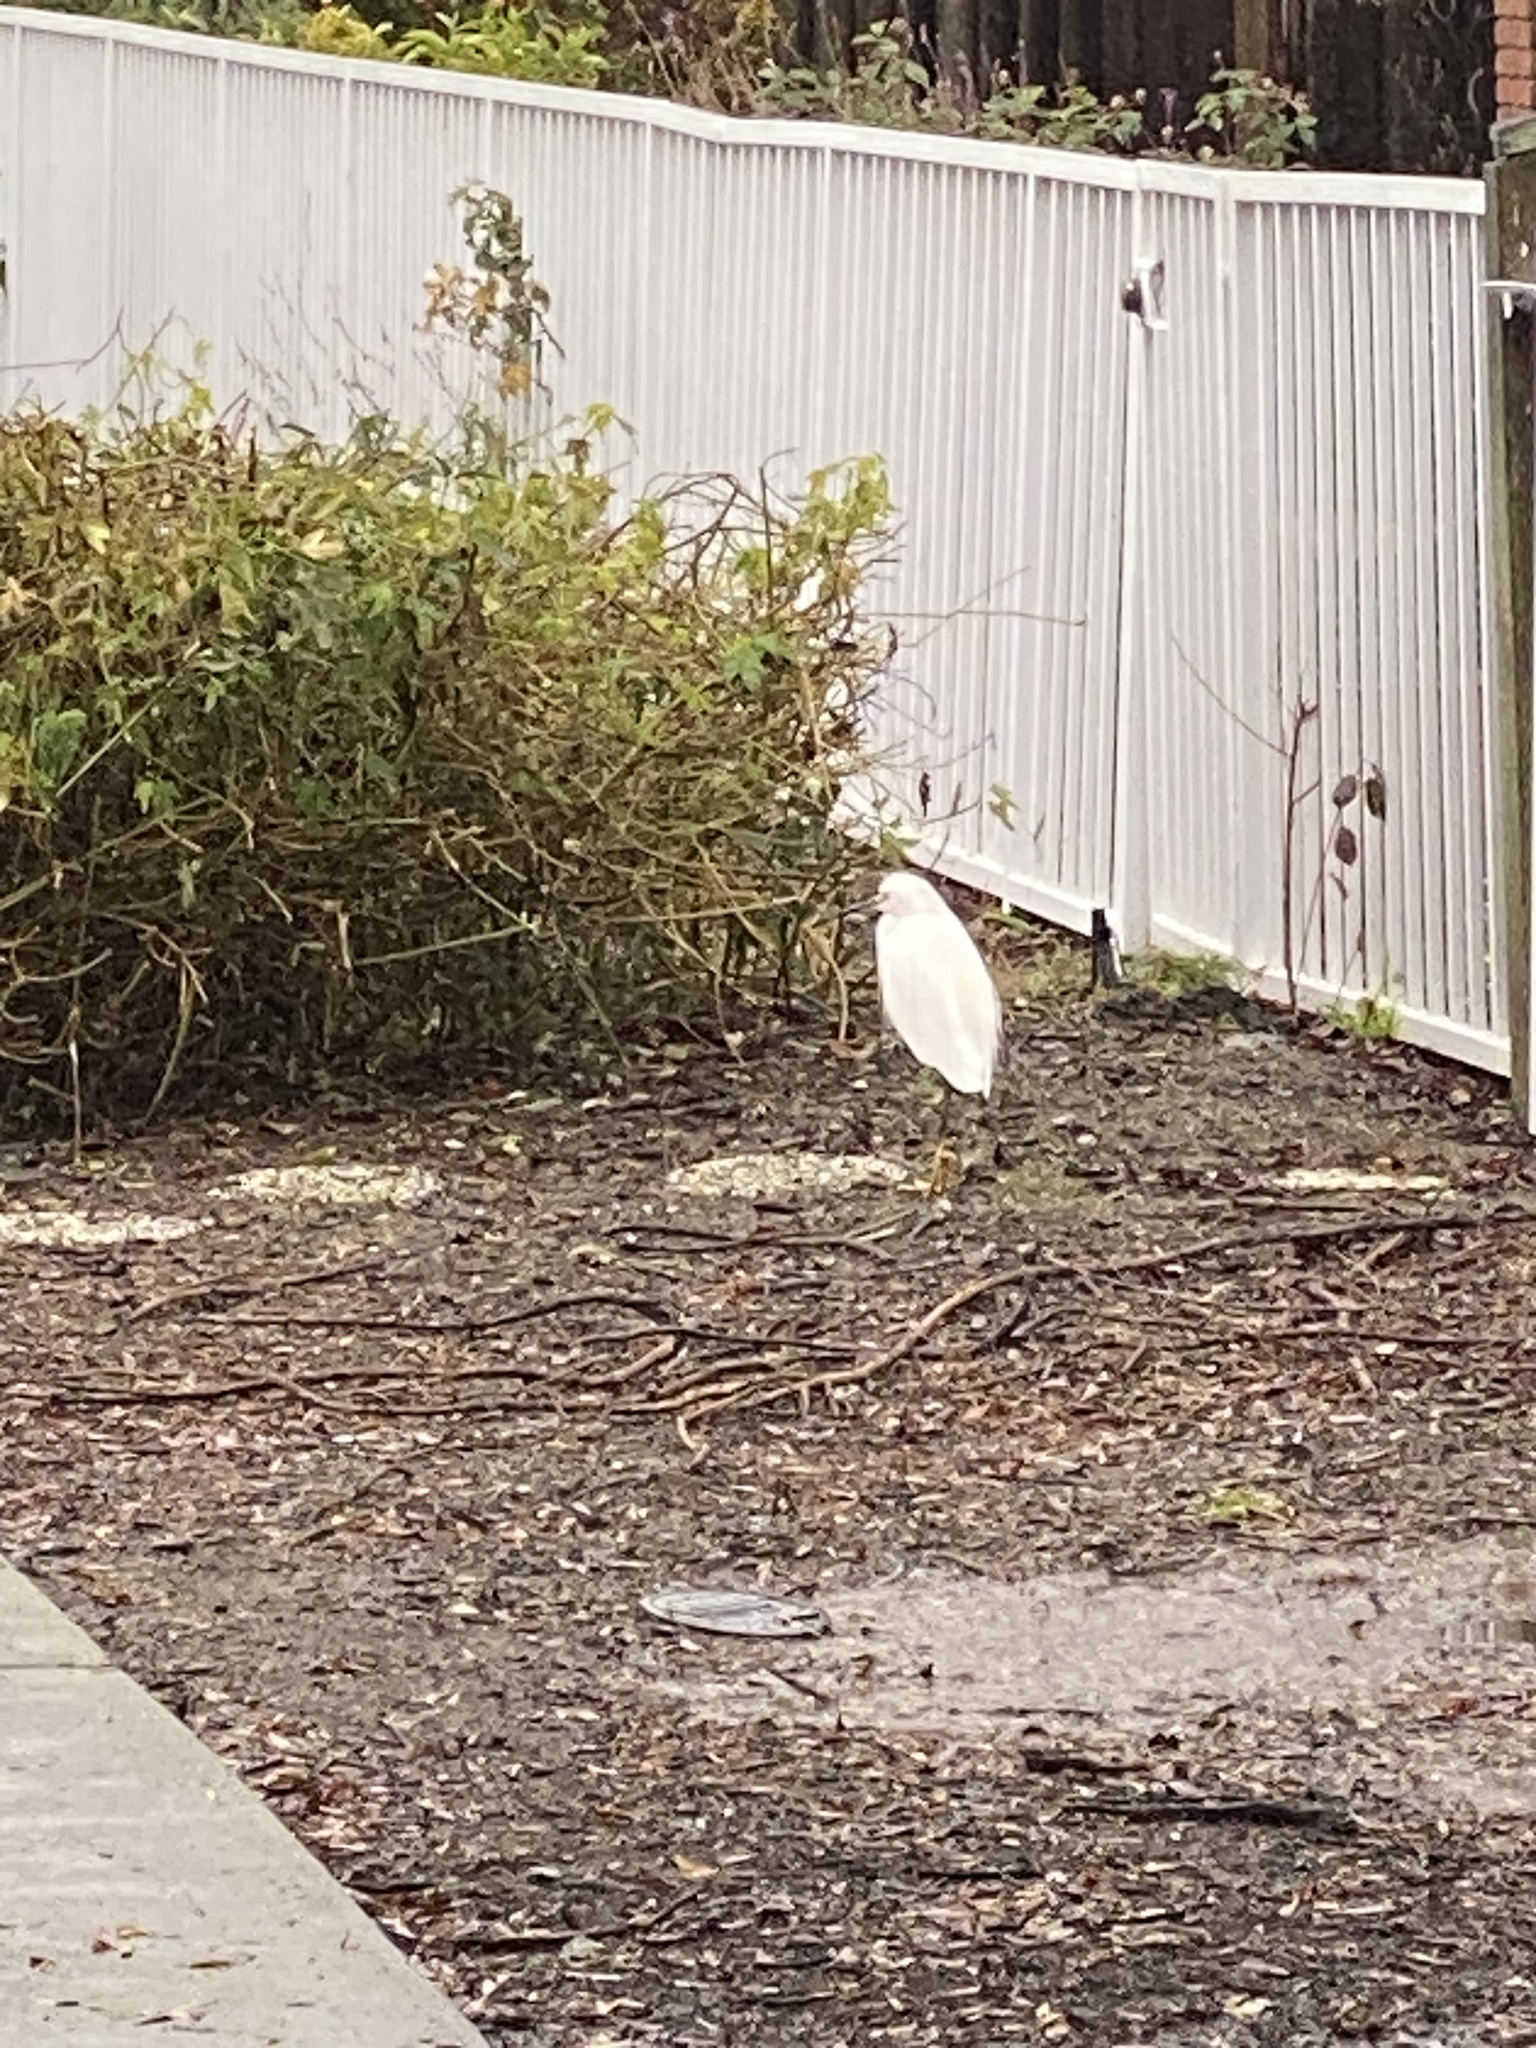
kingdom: Animalia
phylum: Chordata
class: Aves
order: Pelecaniformes
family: Ardeidae
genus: Egretta
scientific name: Egretta thula
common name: Snowy egret
